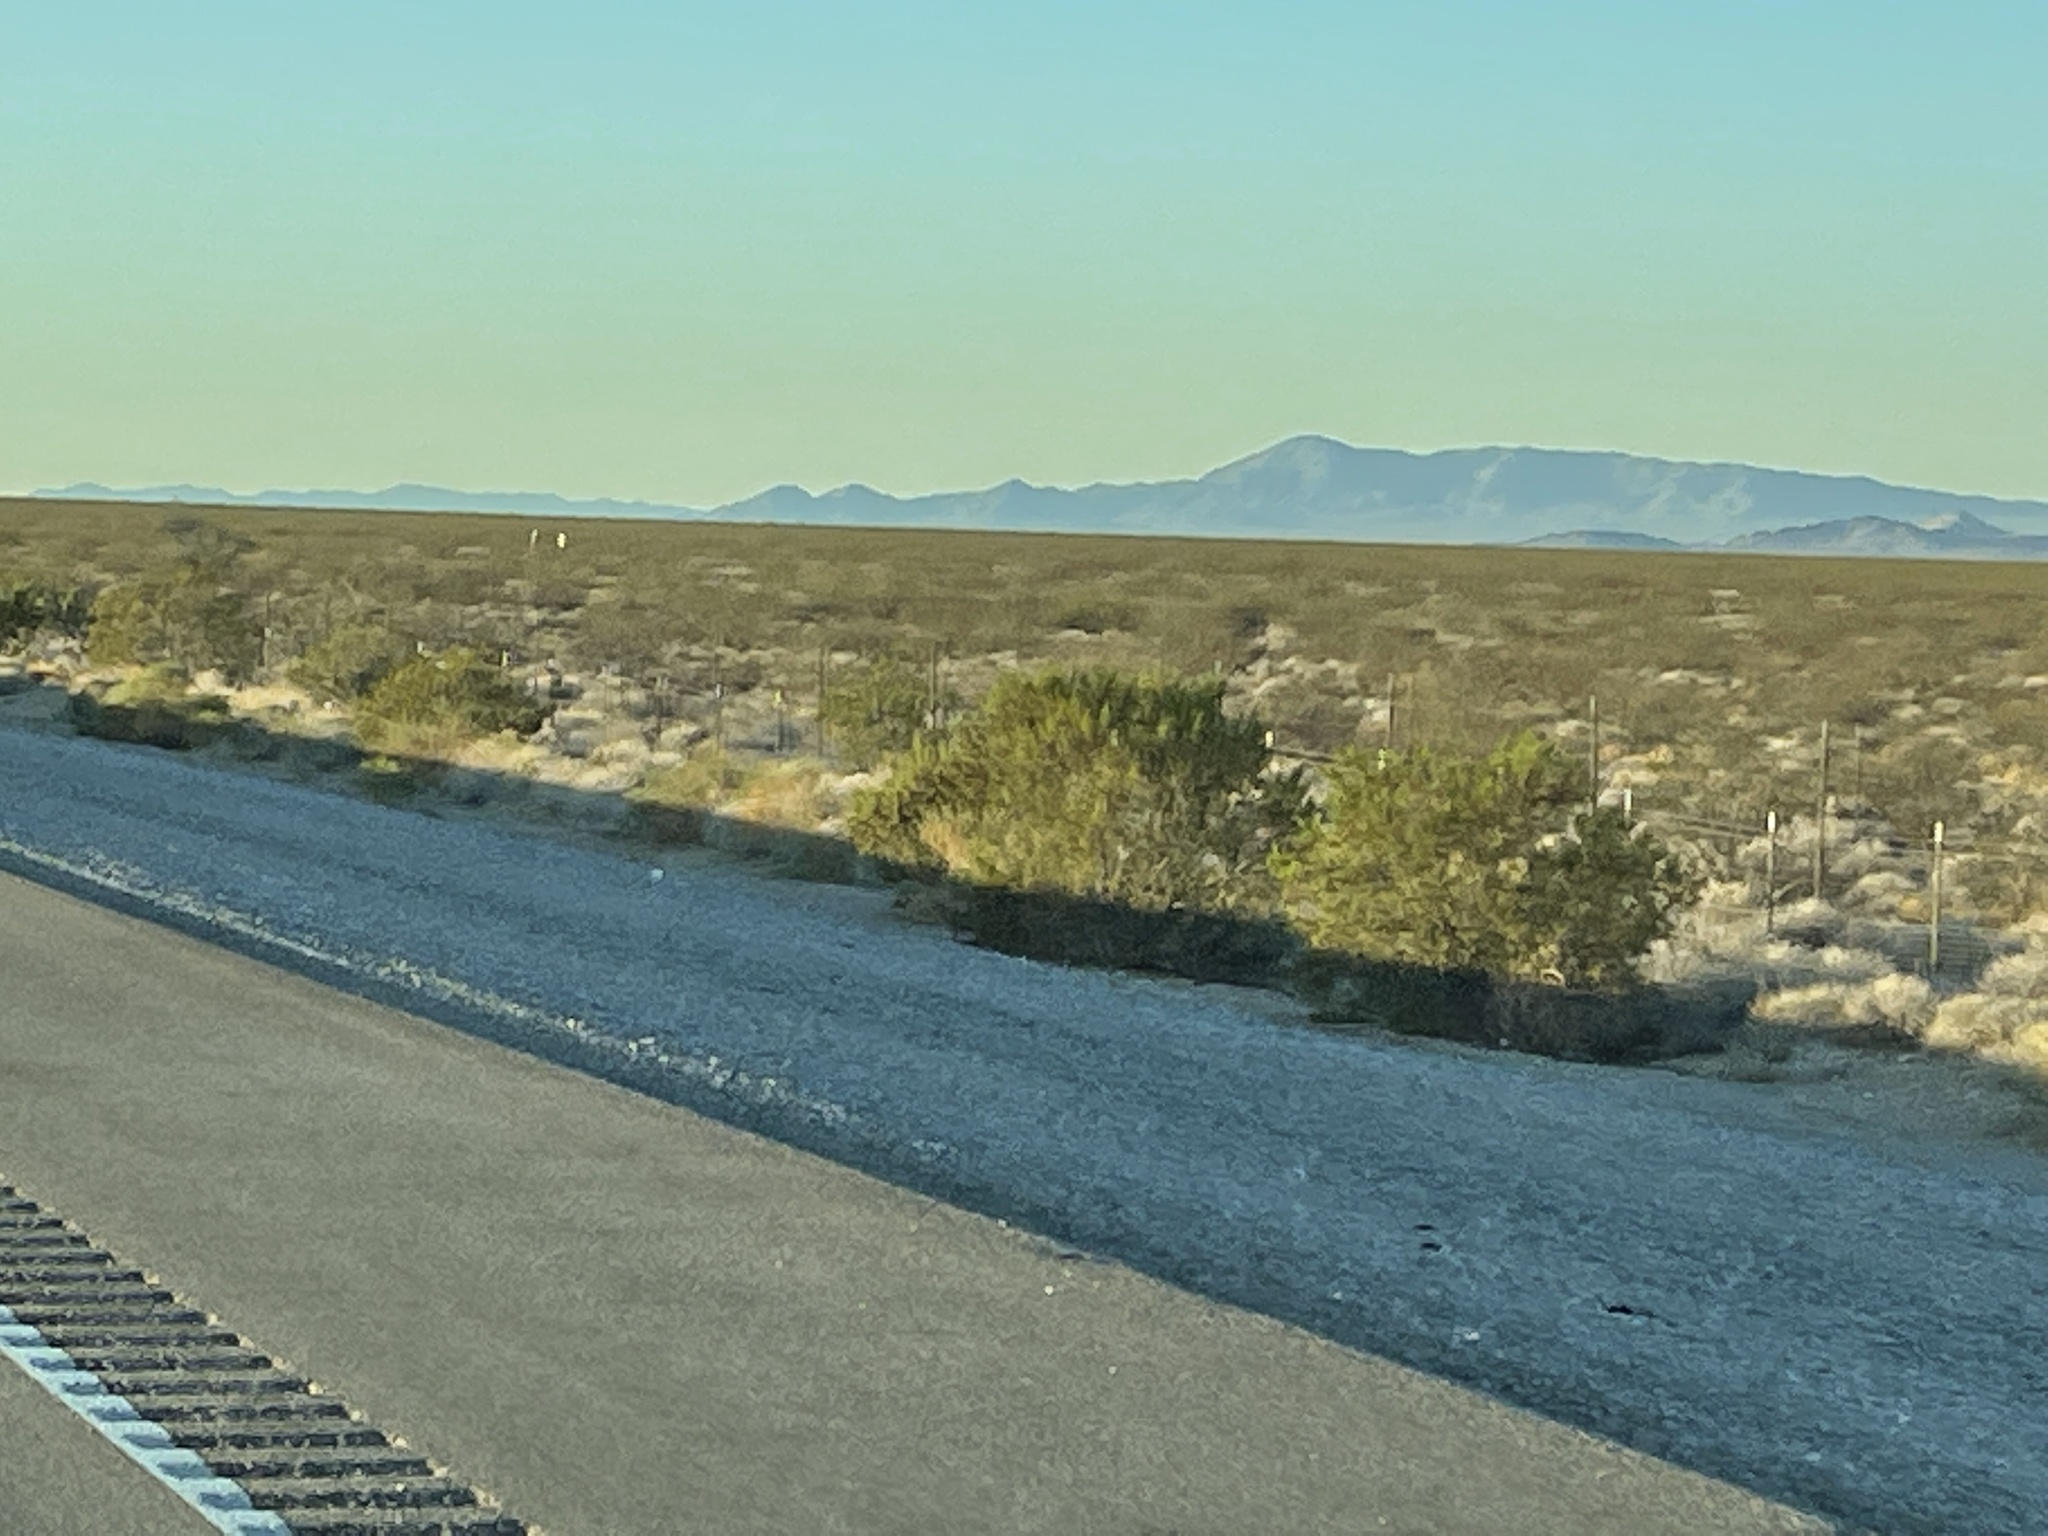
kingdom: Plantae
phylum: Tracheophyta
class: Magnoliopsida
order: Zygophyllales
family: Zygophyllaceae
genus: Larrea
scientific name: Larrea tridentata
